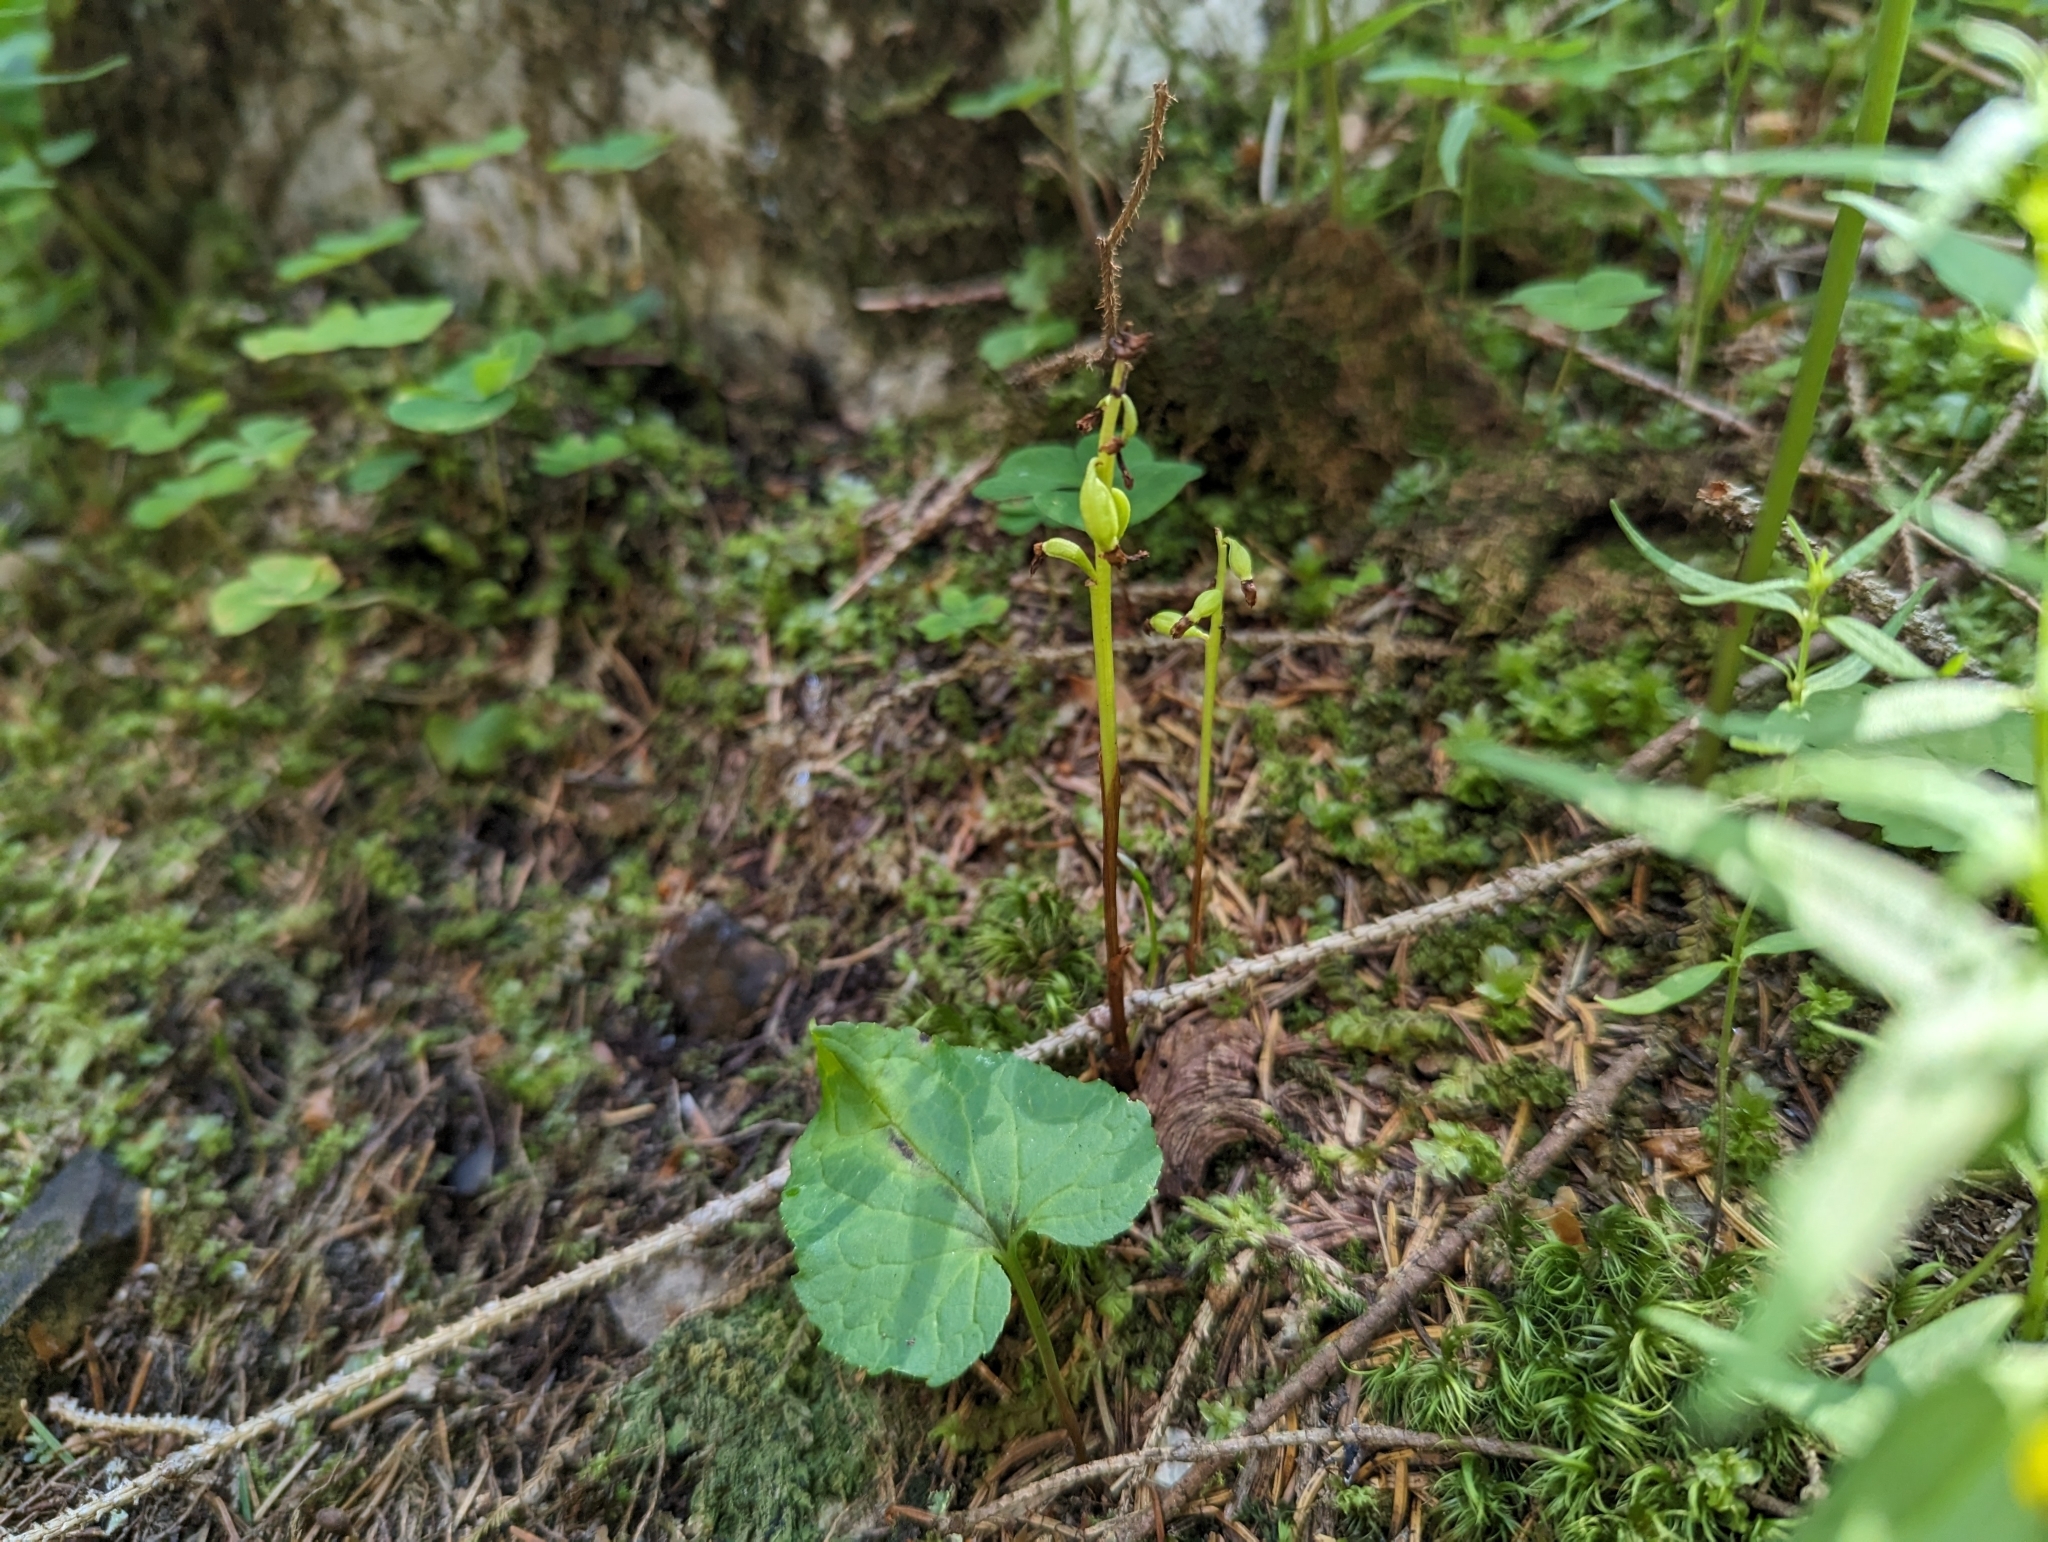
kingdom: Plantae
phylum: Tracheophyta
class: Liliopsida
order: Asparagales
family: Orchidaceae
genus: Corallorhiza
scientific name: Corallorhiza trifida
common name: Yellow coralroot
